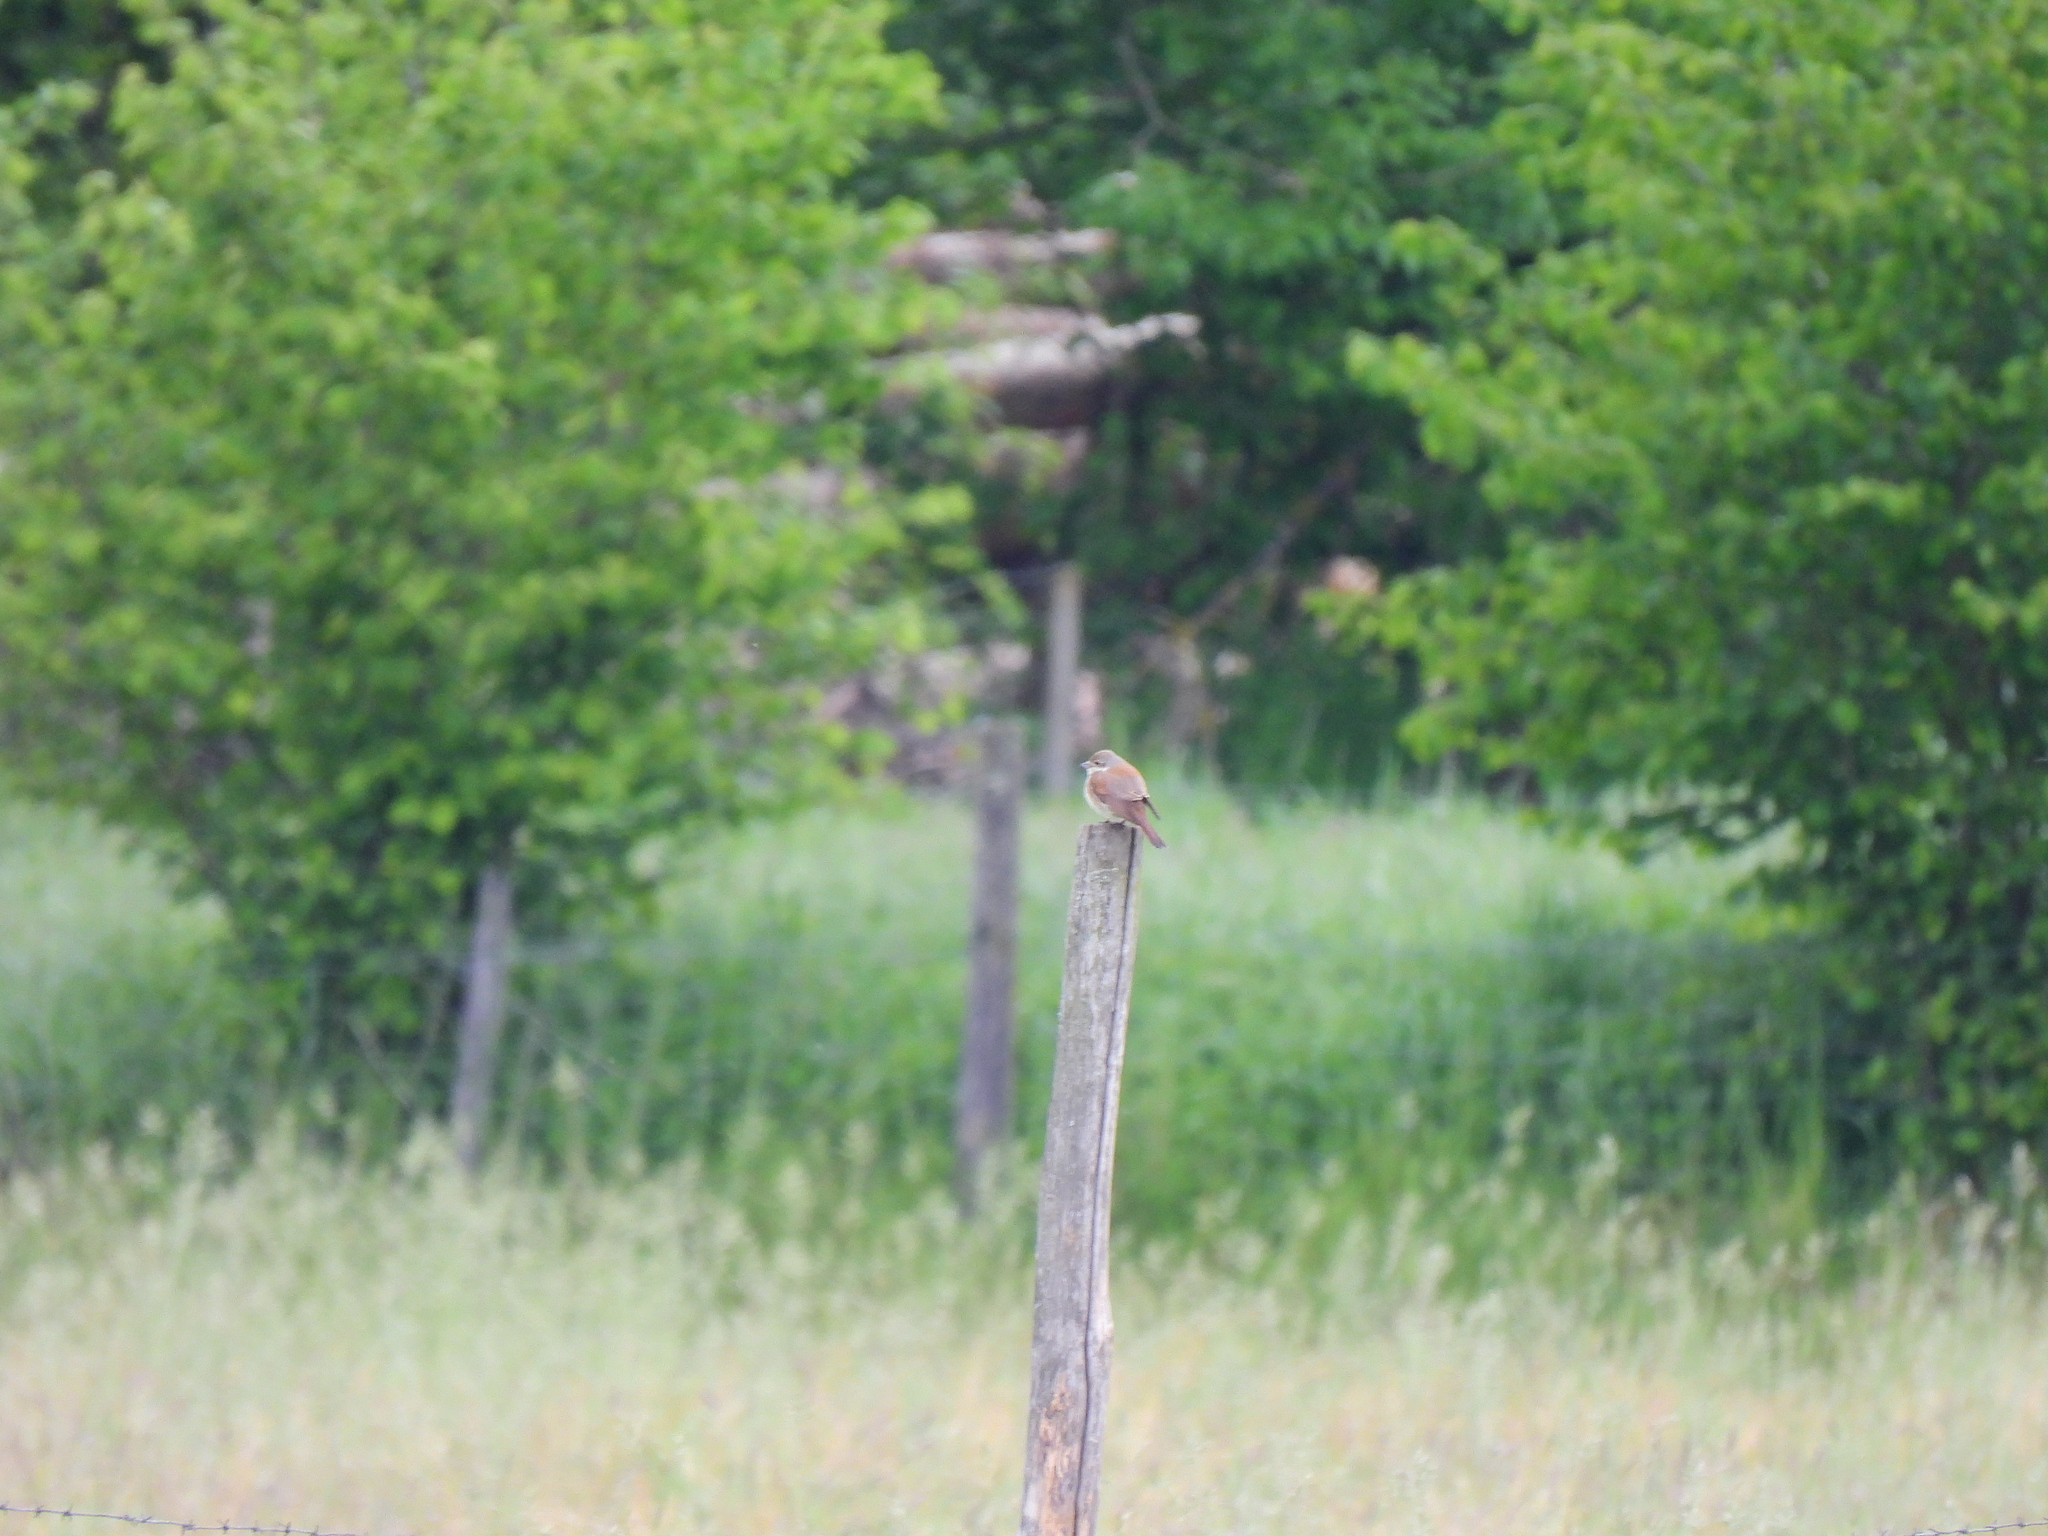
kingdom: Animalia
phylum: Chordata
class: Aves
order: Passeriformes
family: Laniidae
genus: Lanius
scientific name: Lanius collurio
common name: Red-backed shrike
